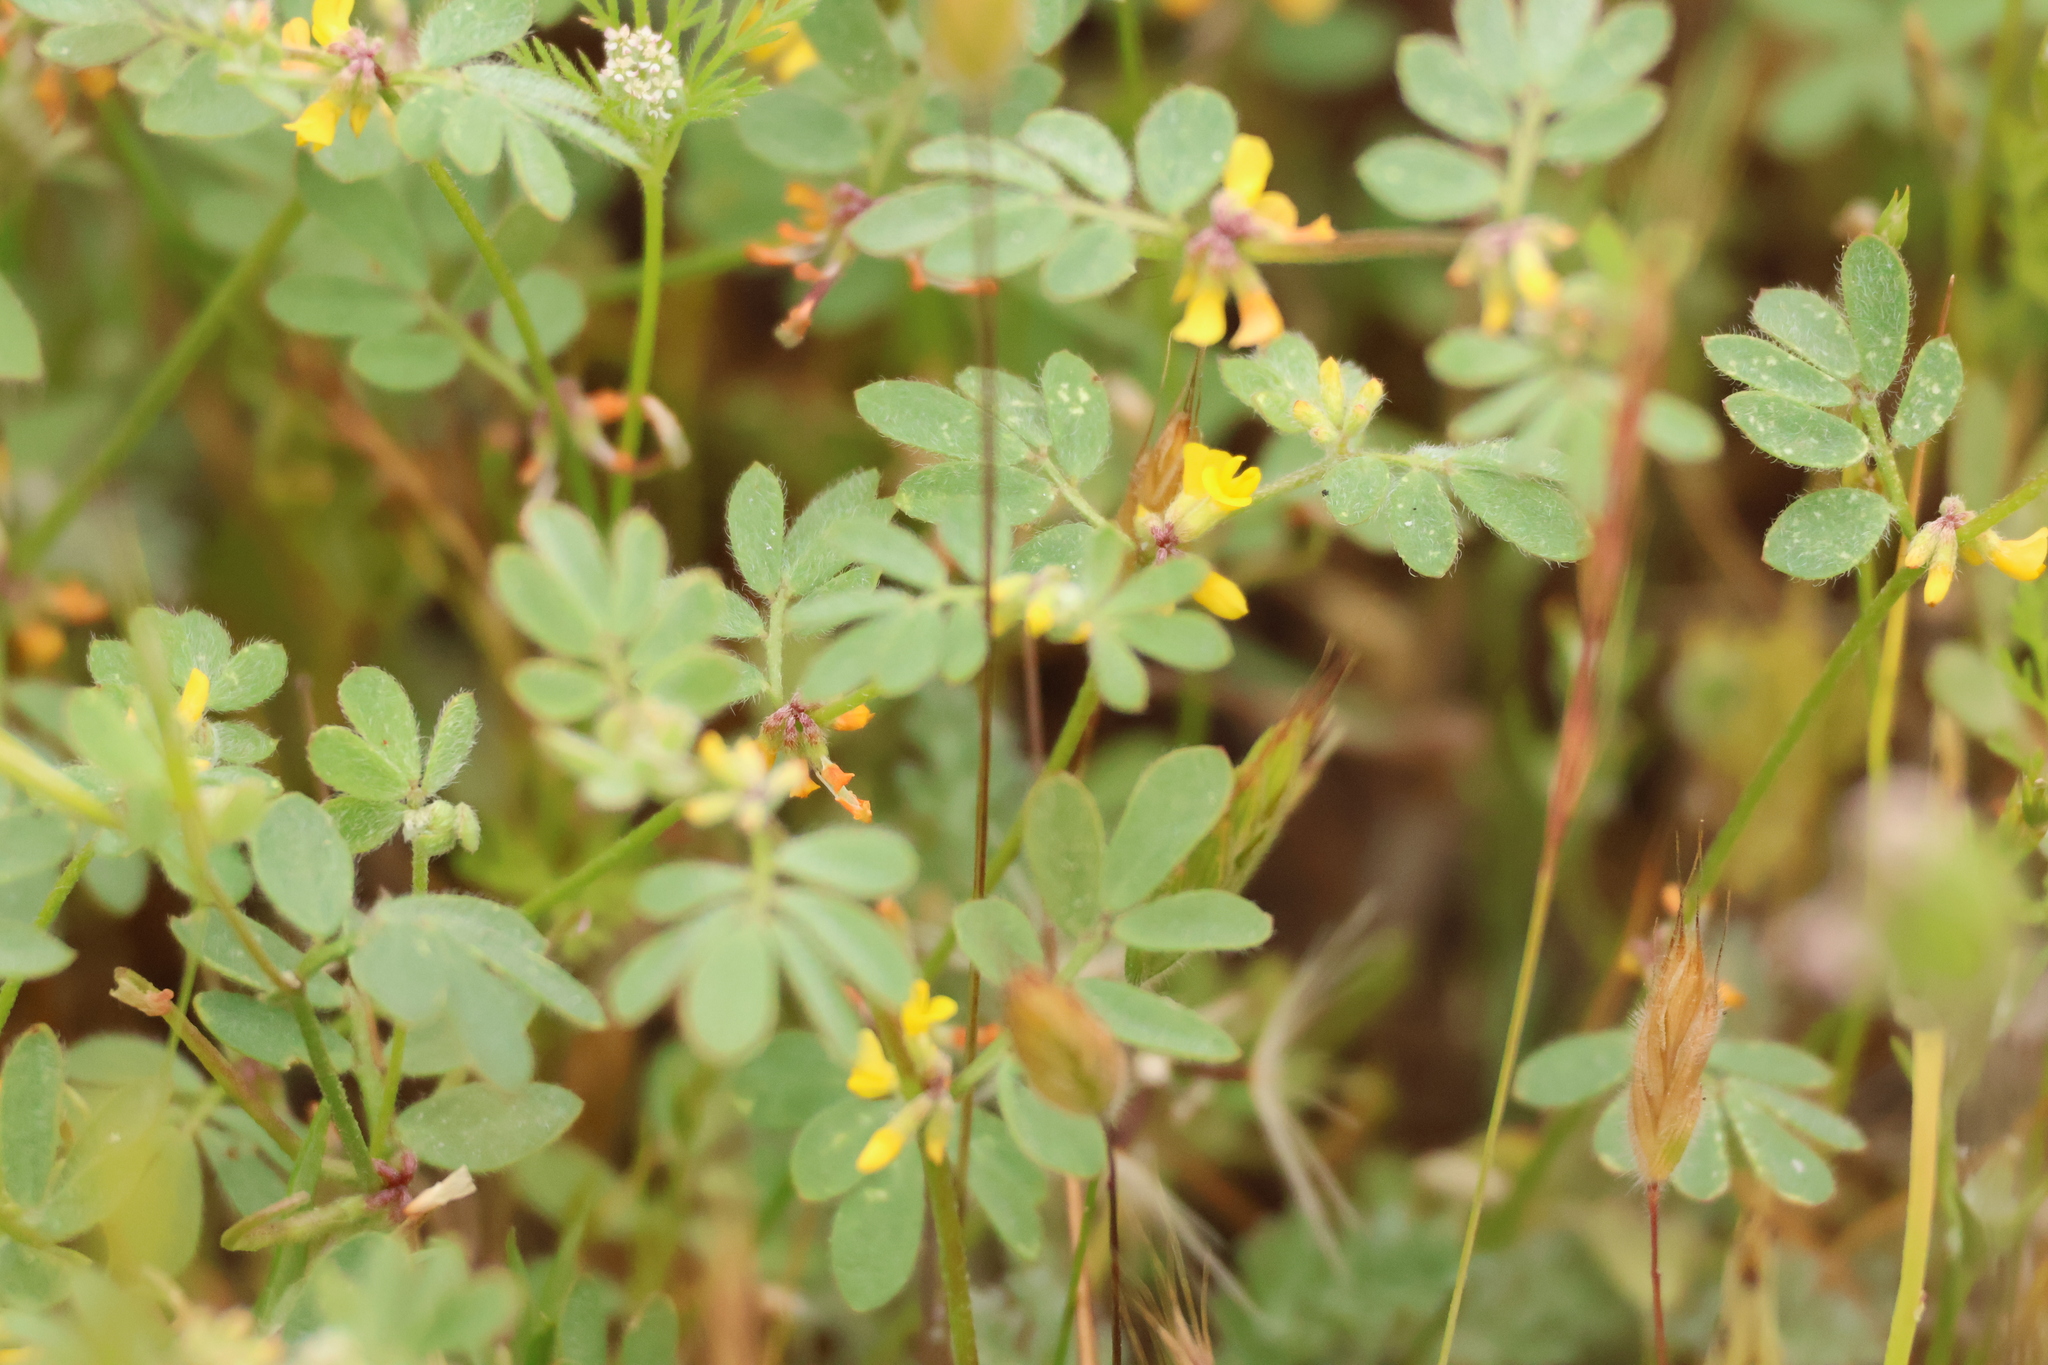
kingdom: Plantae
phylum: Tracheophyta
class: Magnoliopsida
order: Fabales
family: Fabaceae
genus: Acmispon
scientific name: Acmispon micranthus
